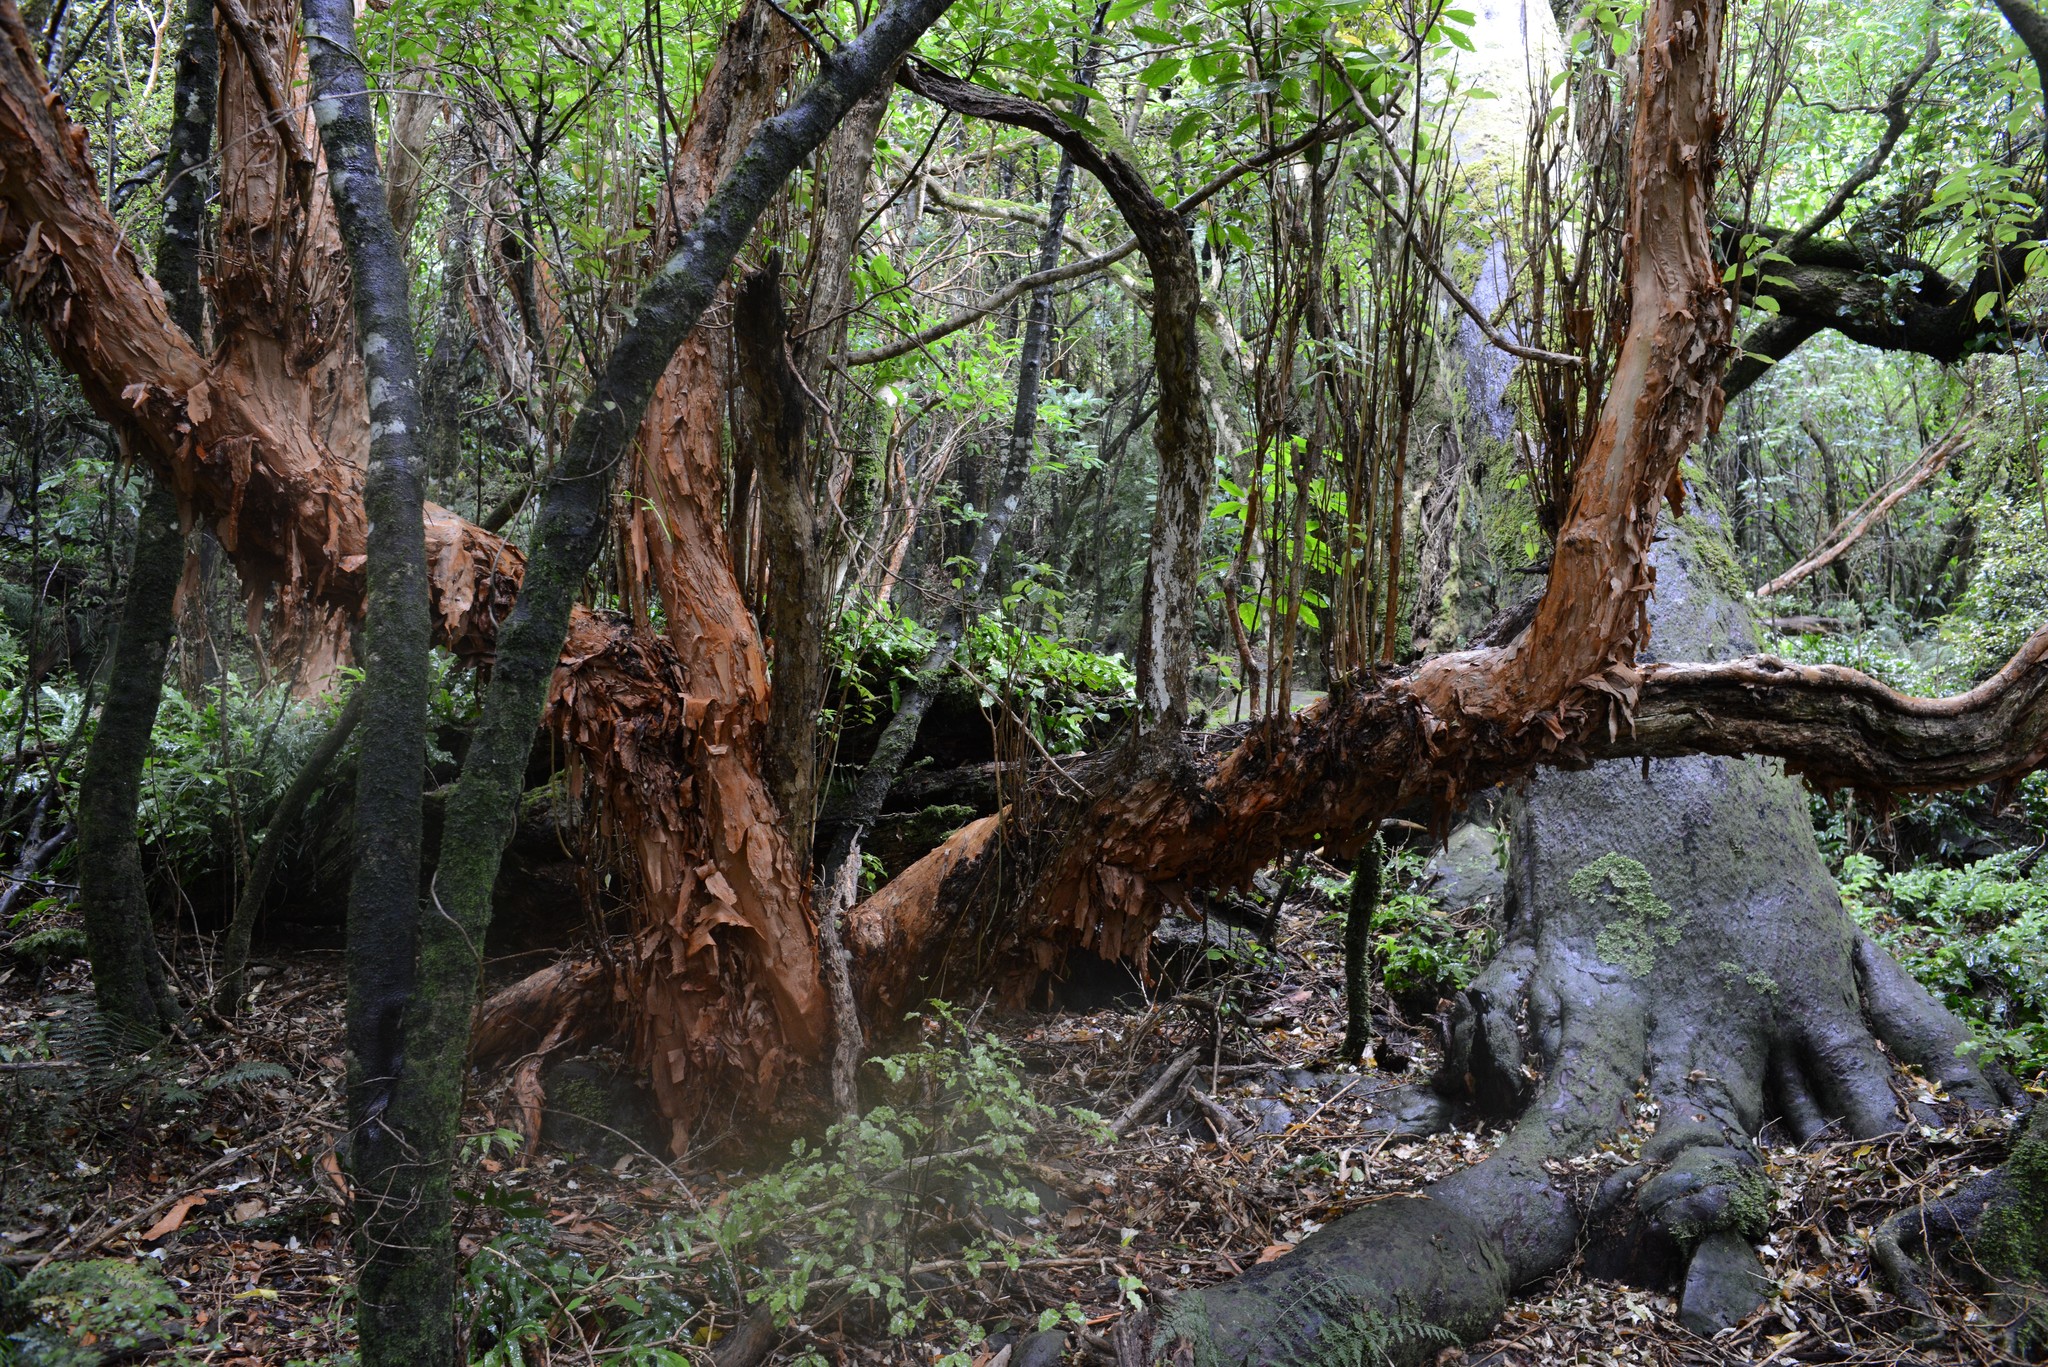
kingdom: Plantae
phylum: Tracheophyta
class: Magnoliopsida
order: Myrtales
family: Onagraceae
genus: Fuchsia
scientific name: Fuchsia excorticata
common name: Tree fuchsia
